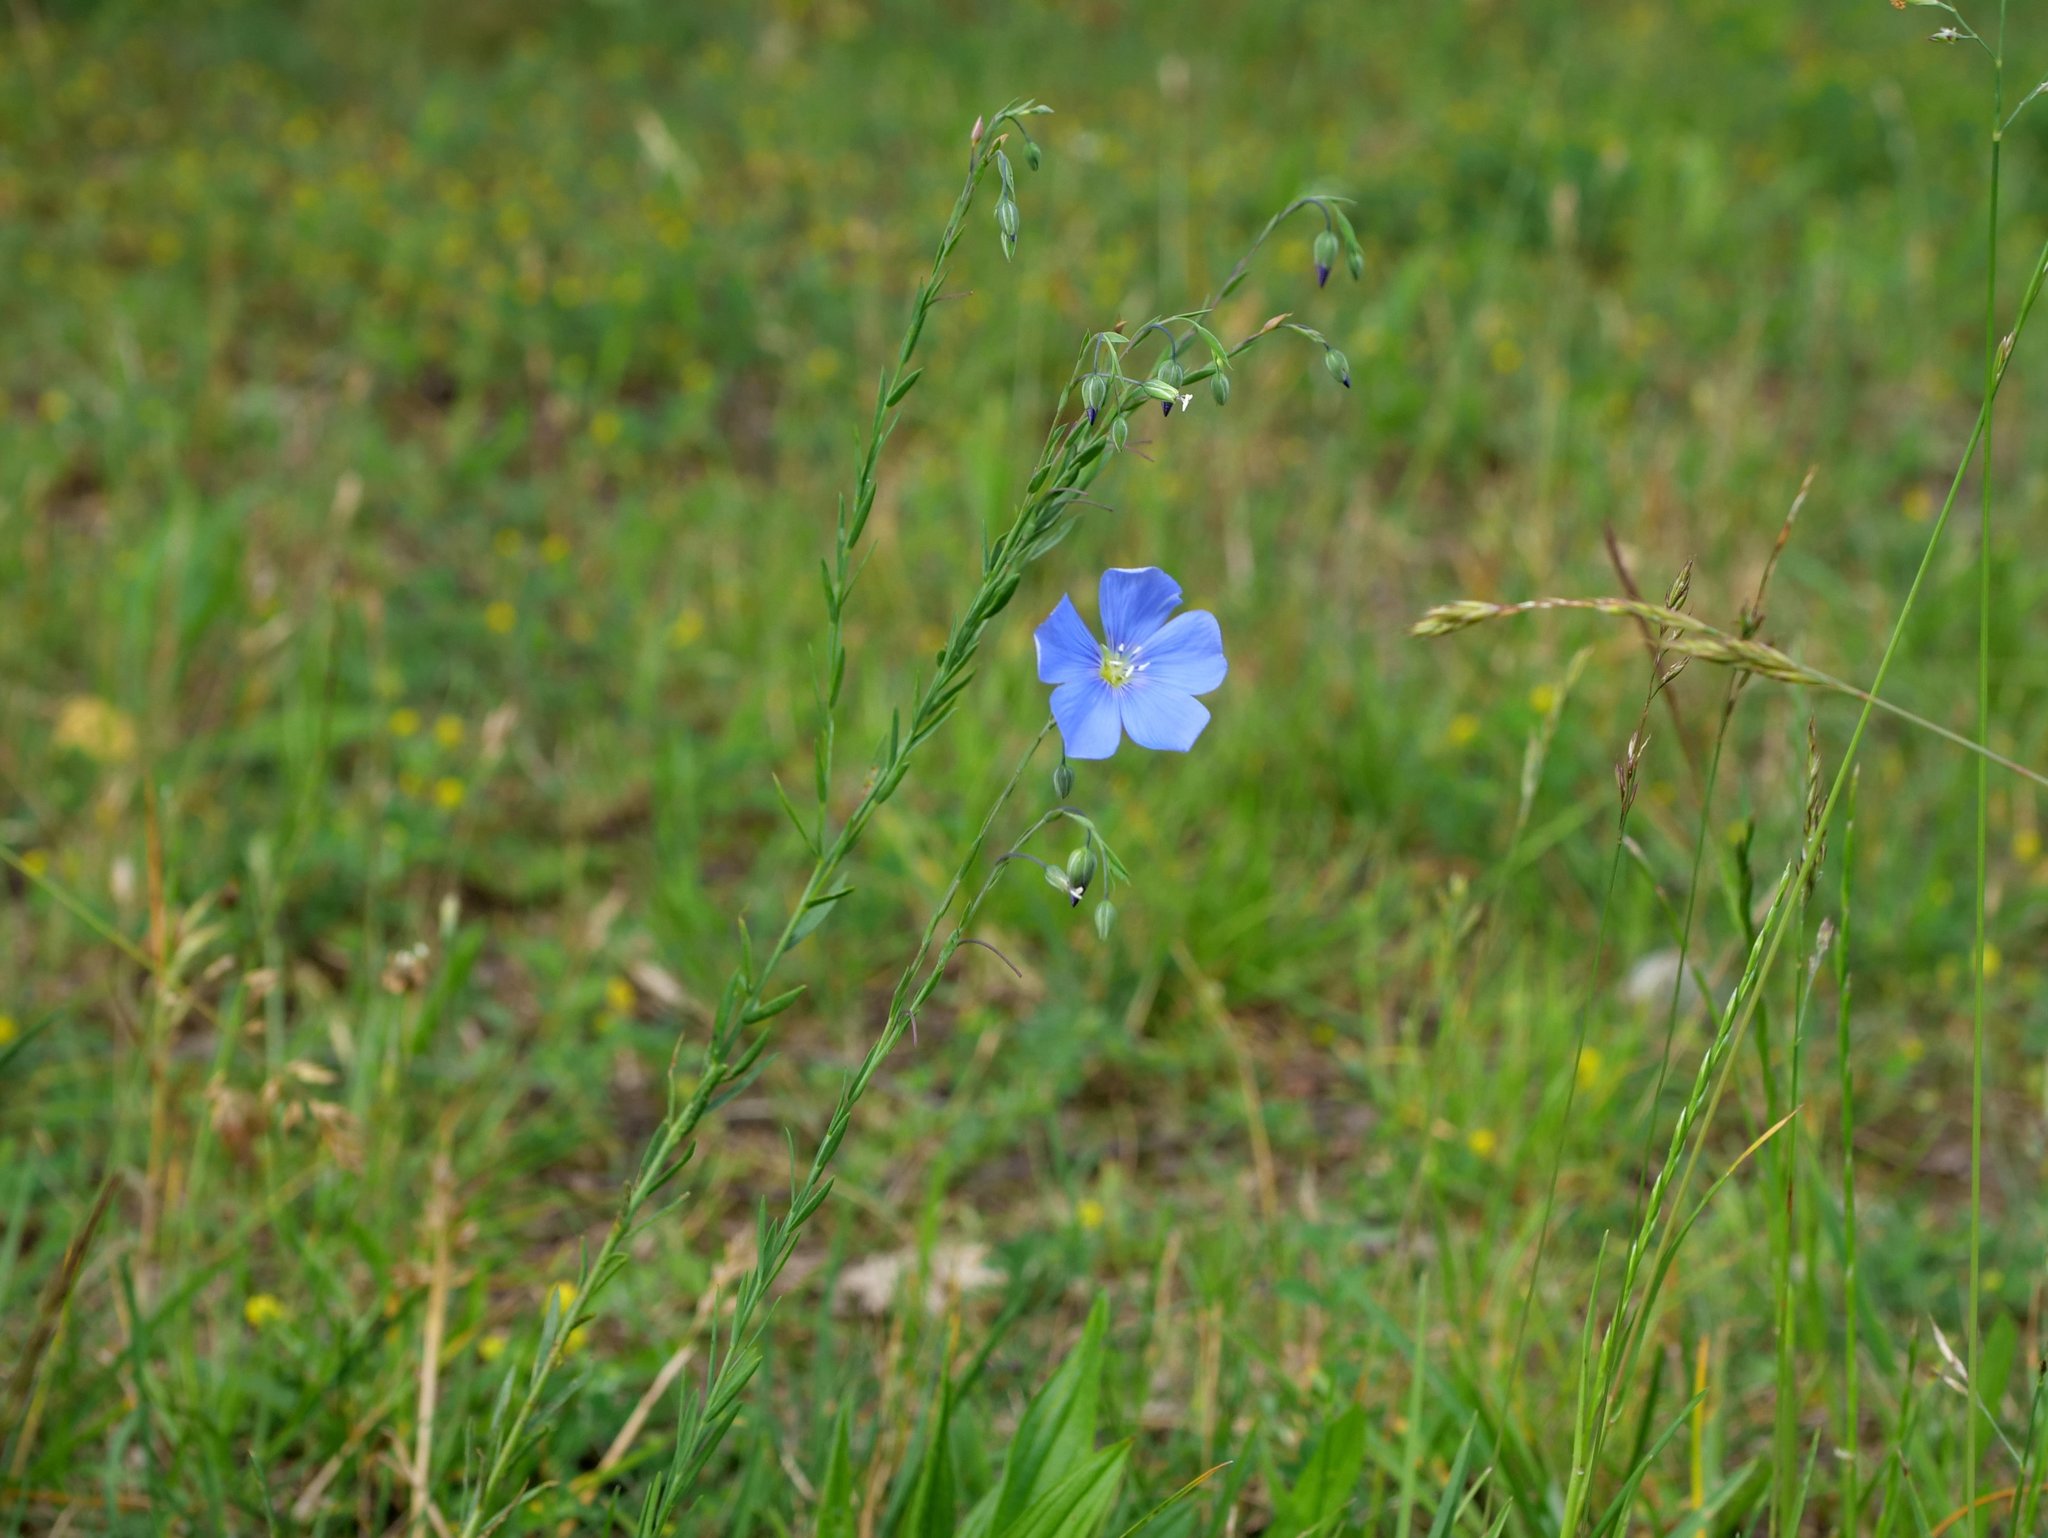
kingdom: Plantae
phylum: Tracheophyta
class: Magnoliopsida
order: Malpighiales
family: Linaceae
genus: Linum
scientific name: Linum austriacum
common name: Austrian flax
